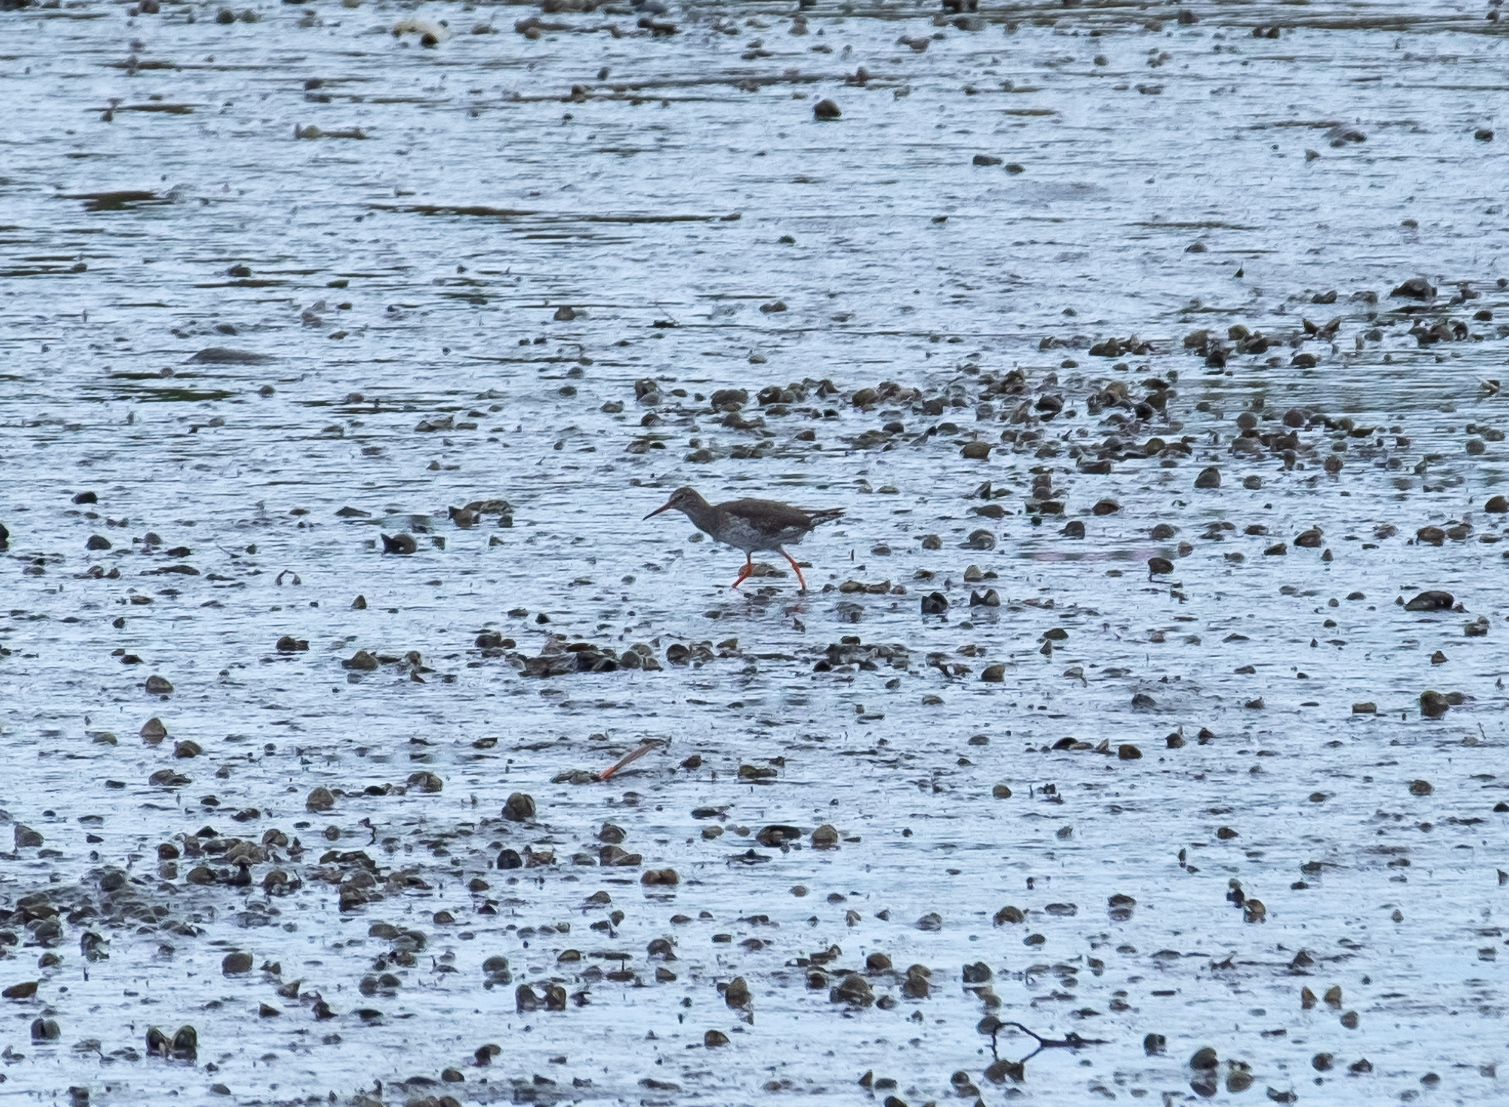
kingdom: Animalia
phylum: Chordata
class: Aves
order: Charadriiformes
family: Scolopacidae
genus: Tringa
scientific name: Tringa totanus
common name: Common redshank
